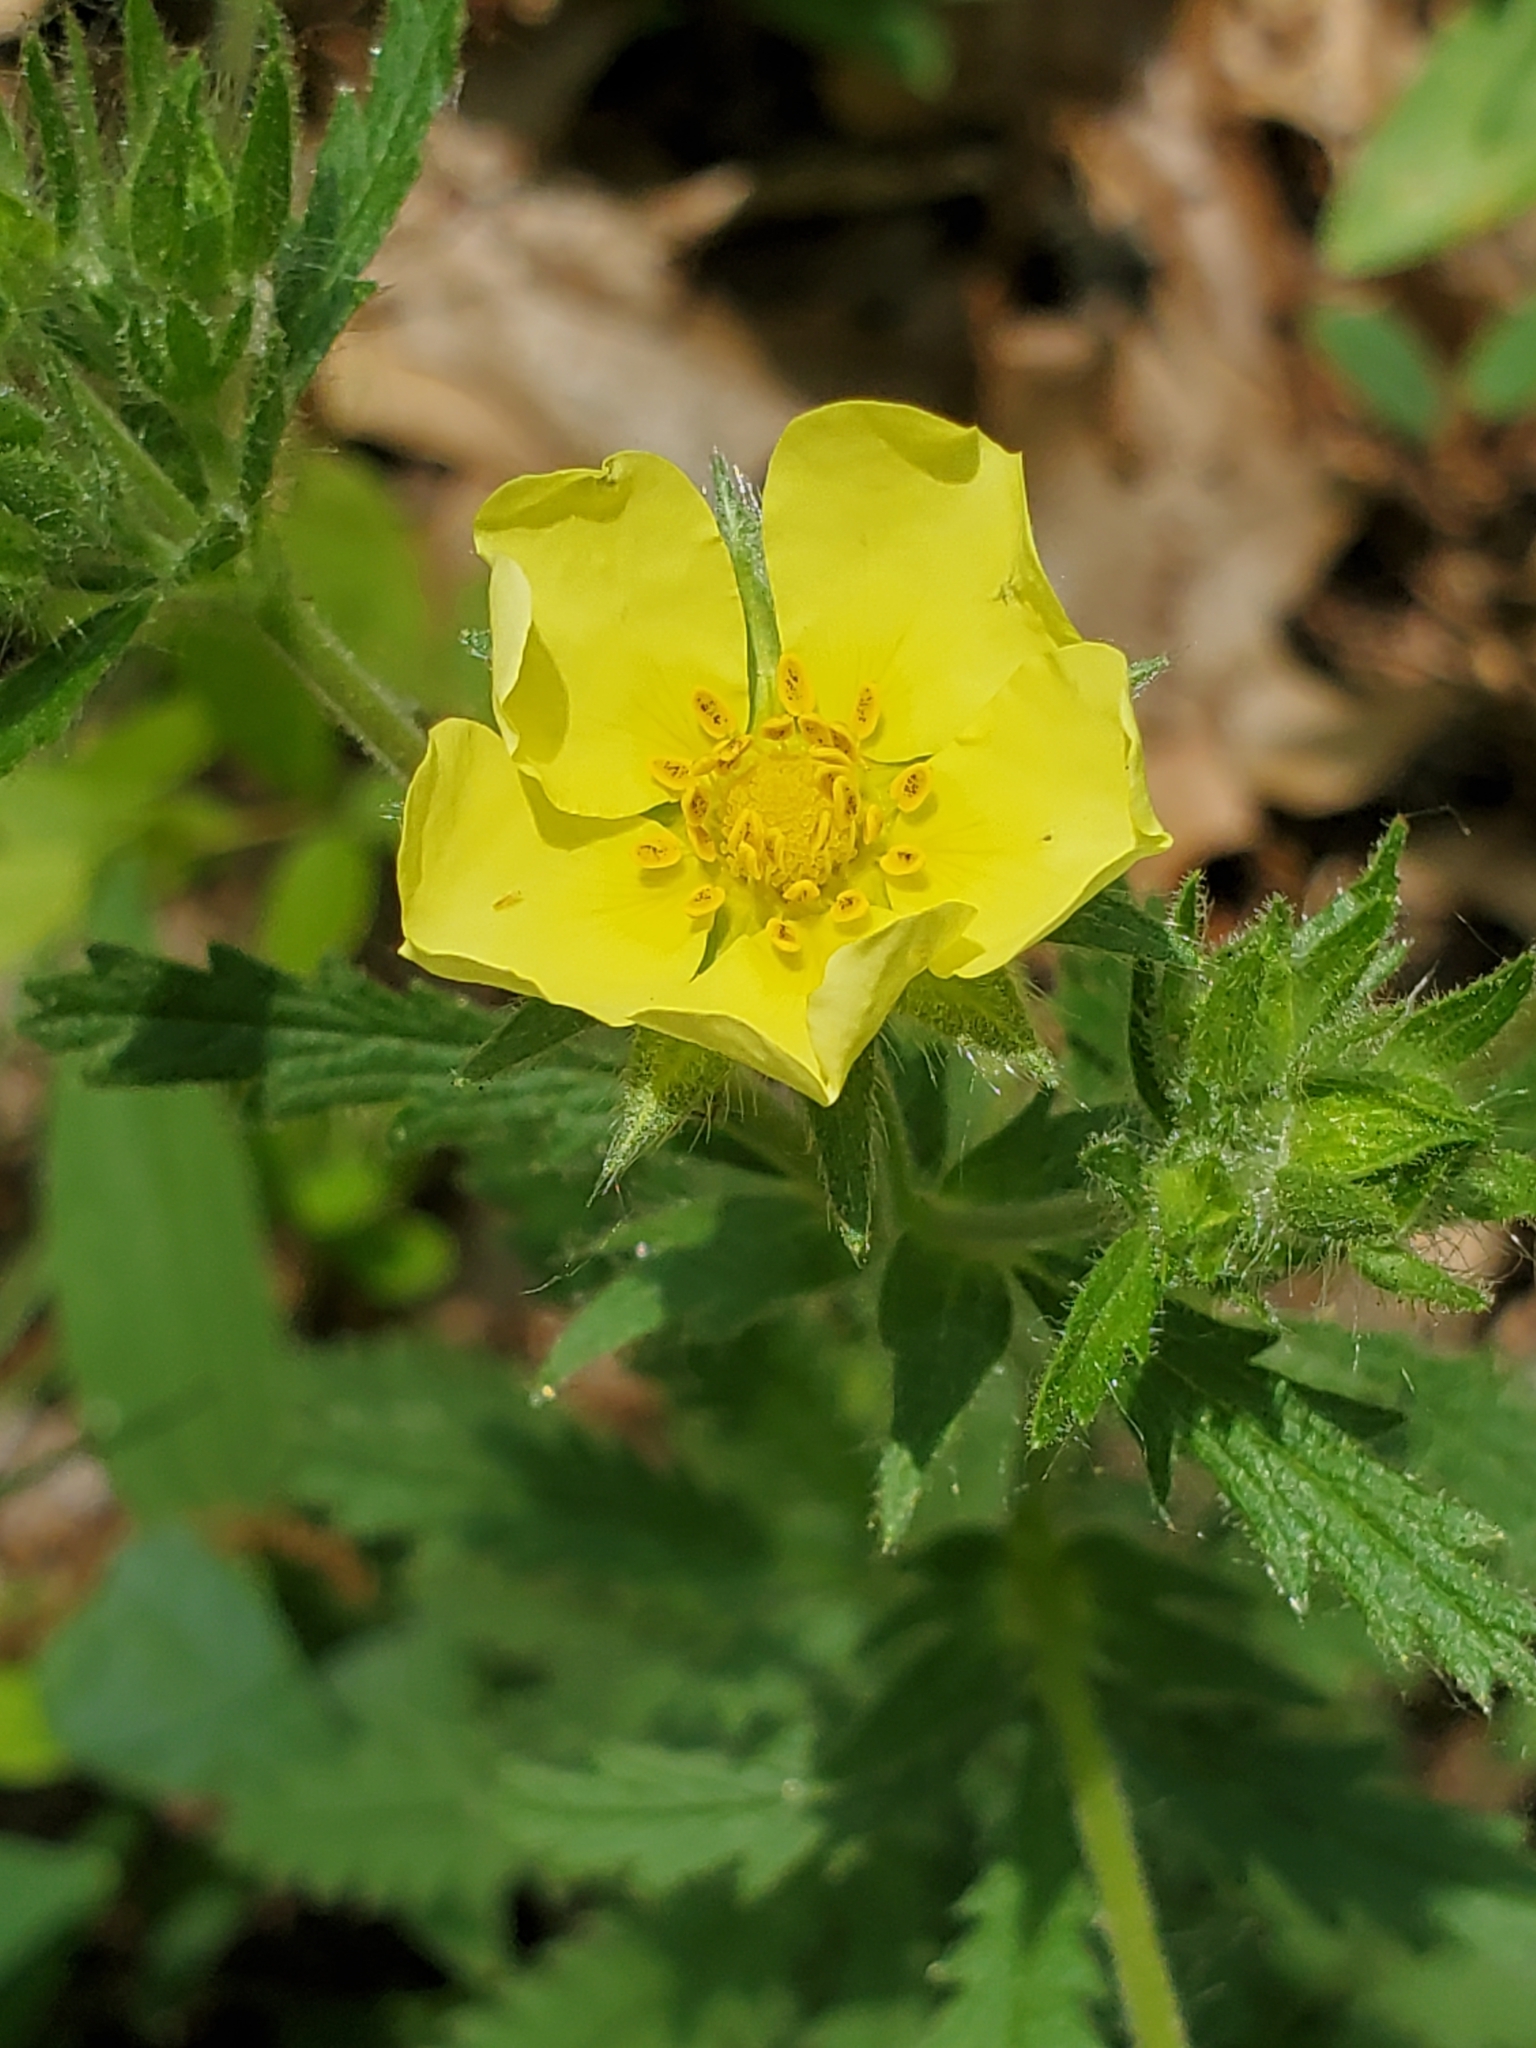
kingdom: Plantae
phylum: Tracheophyta
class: Magnoliopsida
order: Rosales
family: Rosaceae
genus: Potentilla
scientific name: Potentilla recta
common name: Sulphur cinquefoil
